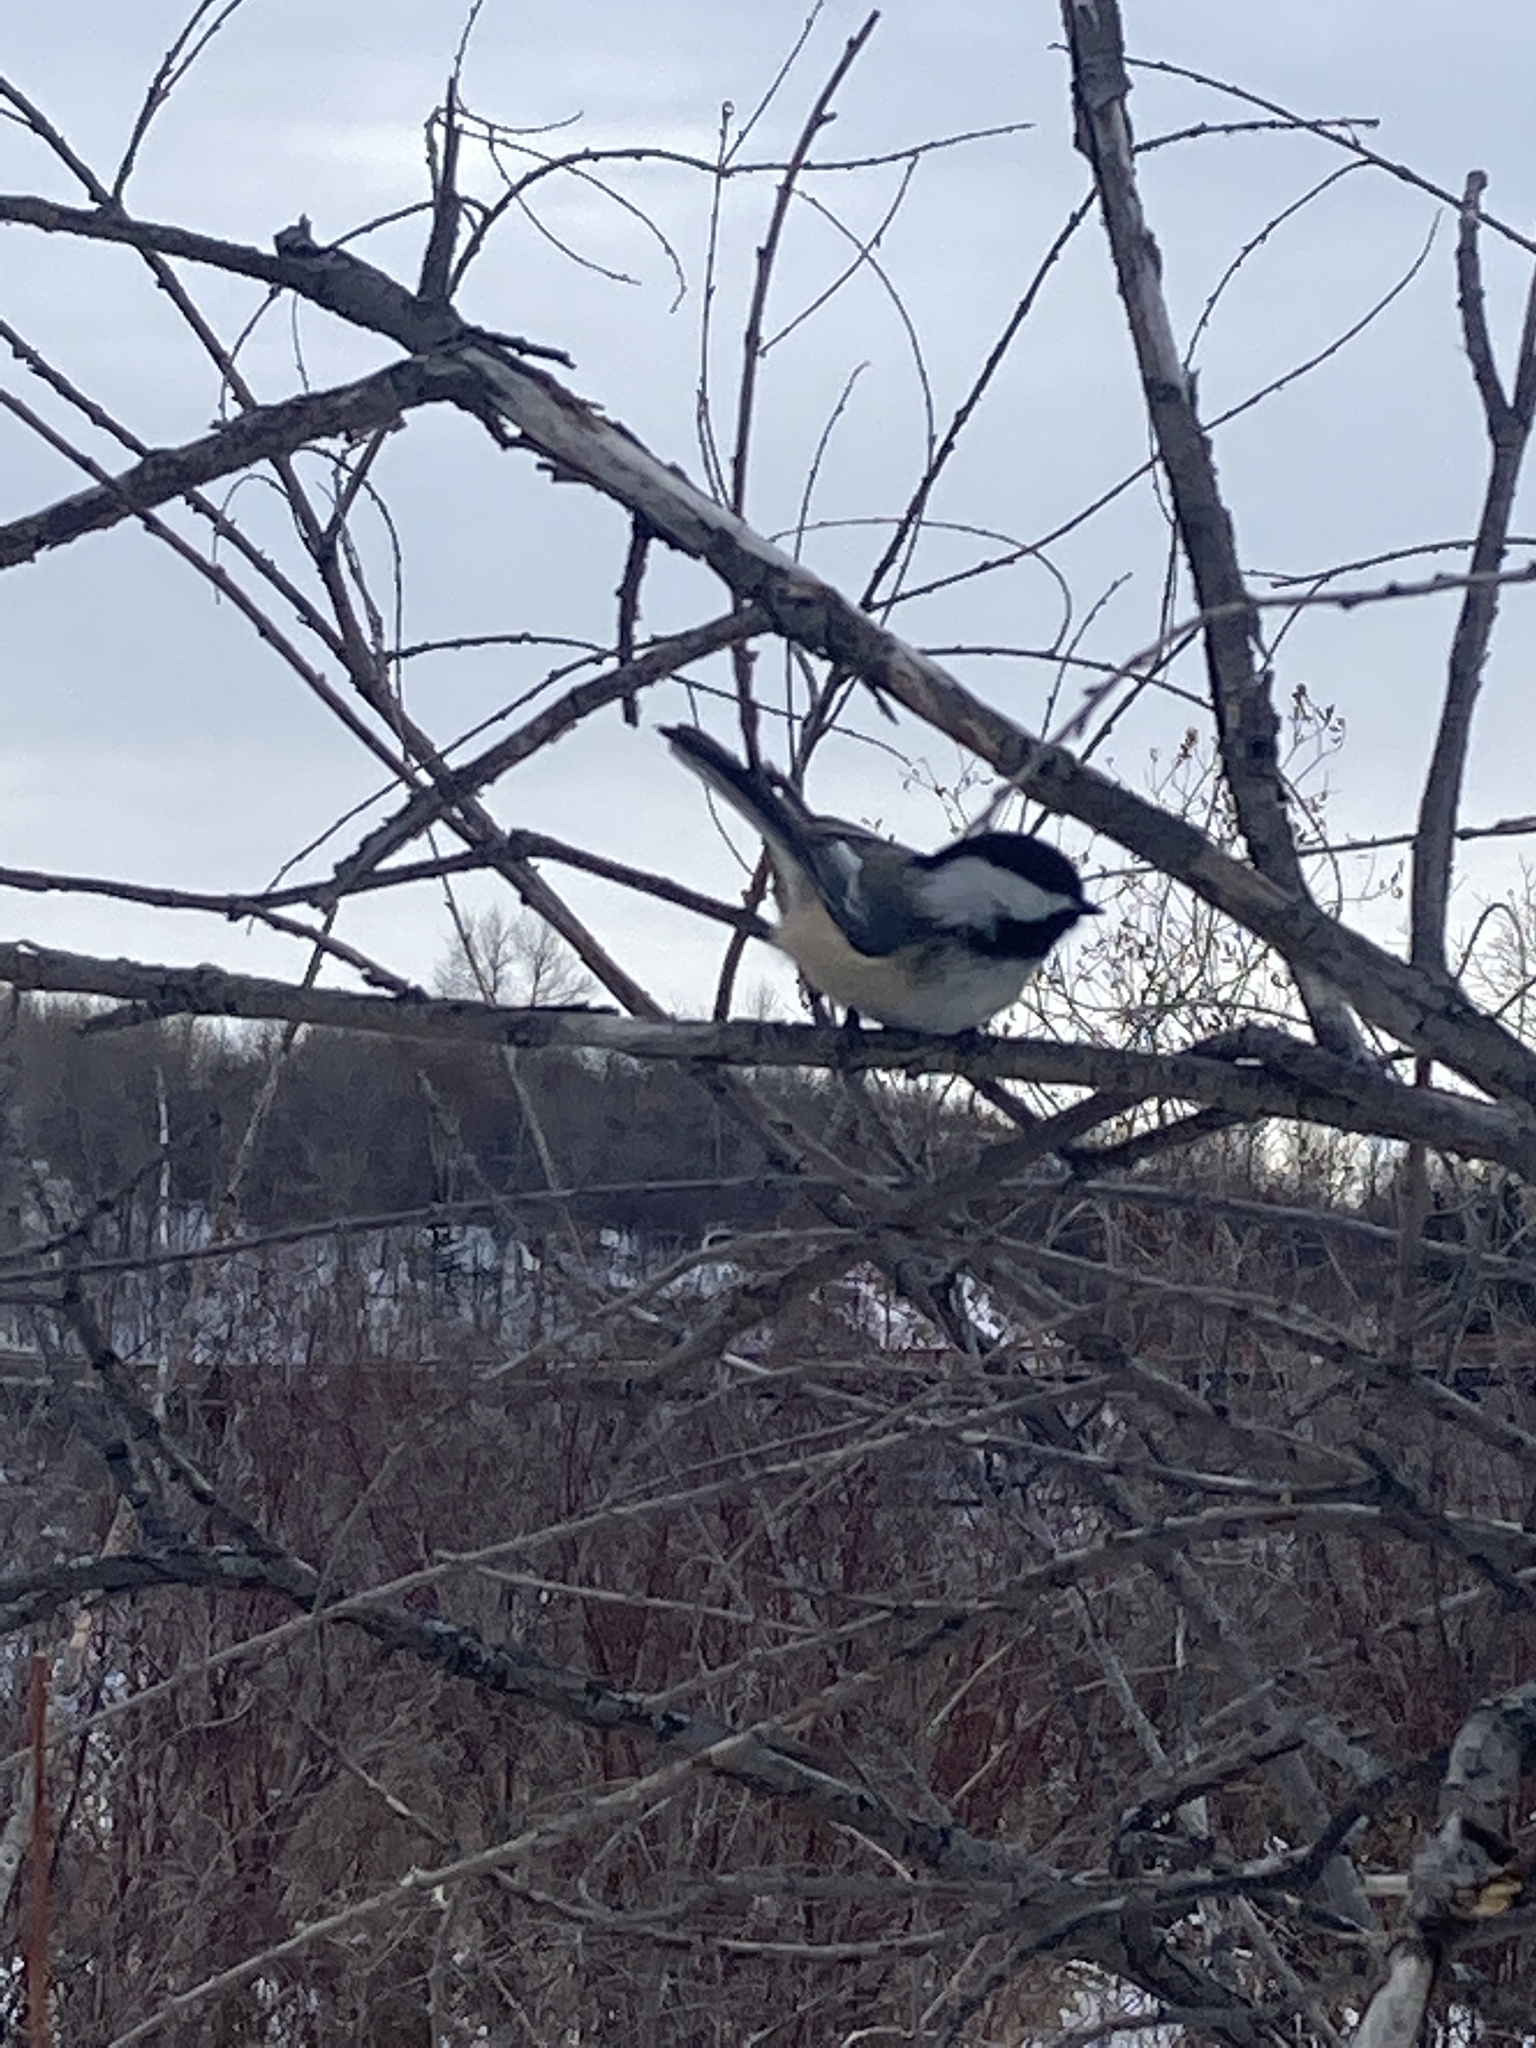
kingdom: Animalia
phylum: Chordata
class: Aves
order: Passeriformes
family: Paridae
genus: Poecile
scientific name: Poecile atricapillus
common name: Black-capped chickadee
